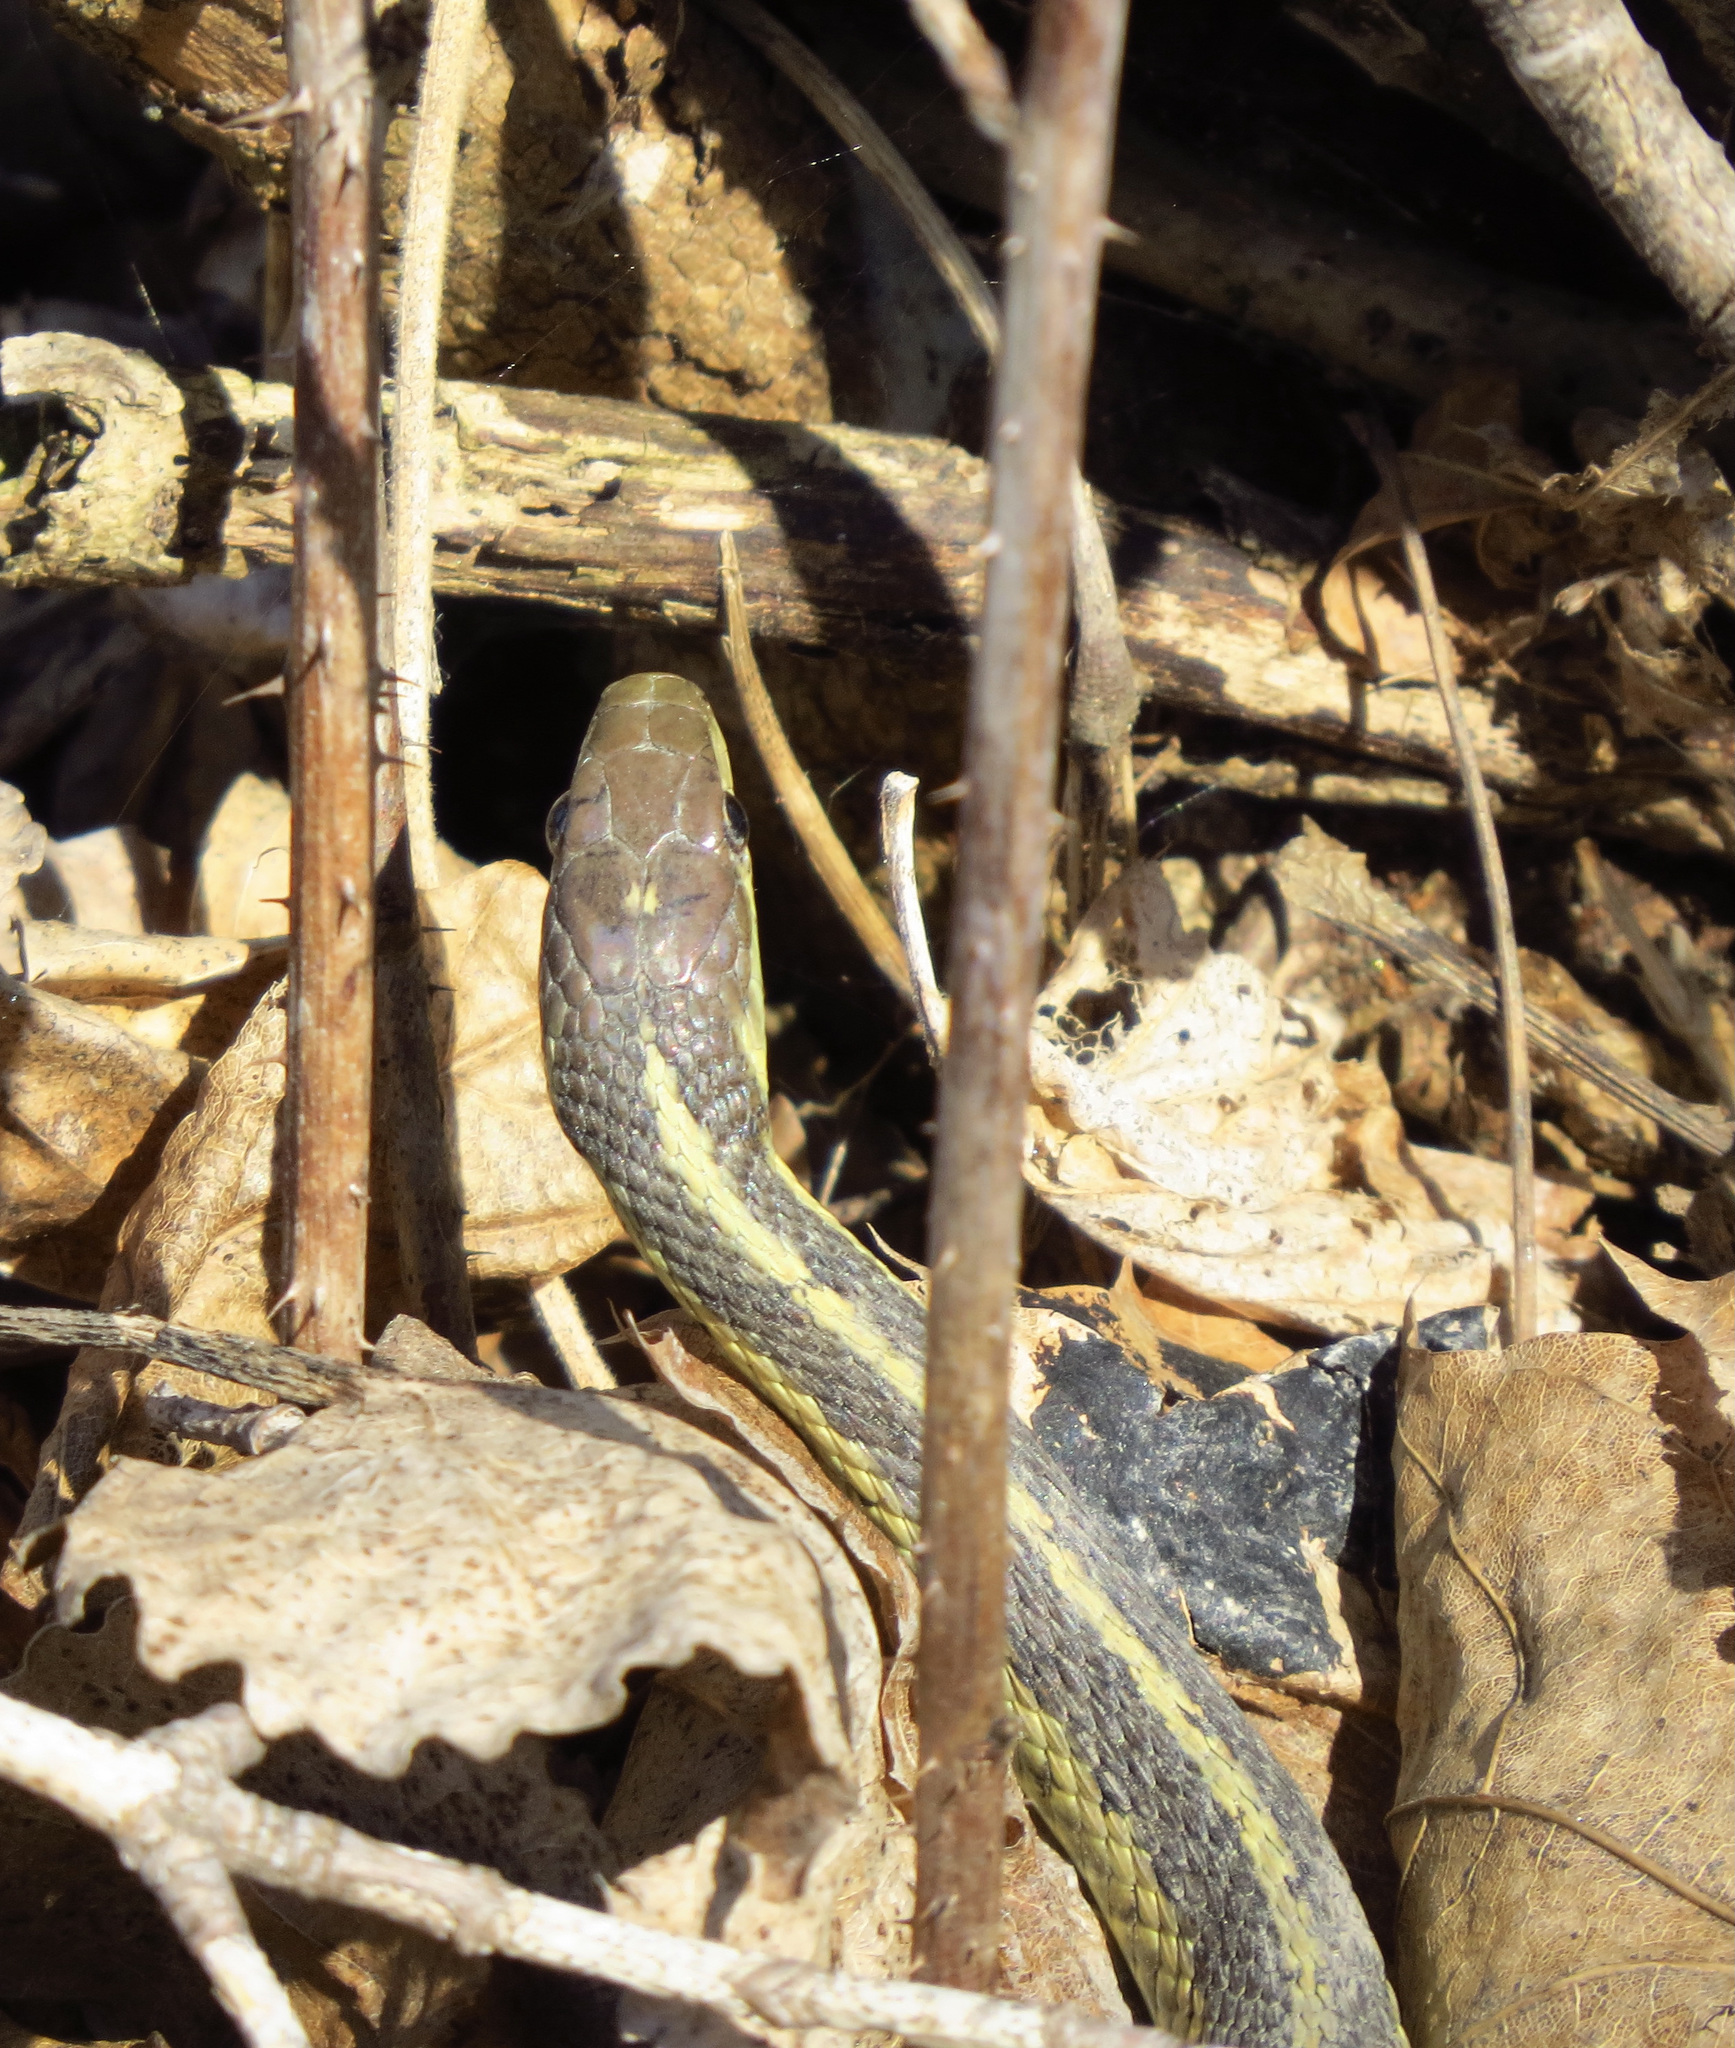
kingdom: Animalia
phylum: Chordata
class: Squamata
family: Colubridae
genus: Thamnophis
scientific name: Thamnophis sirtalis
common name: Common garter snake
